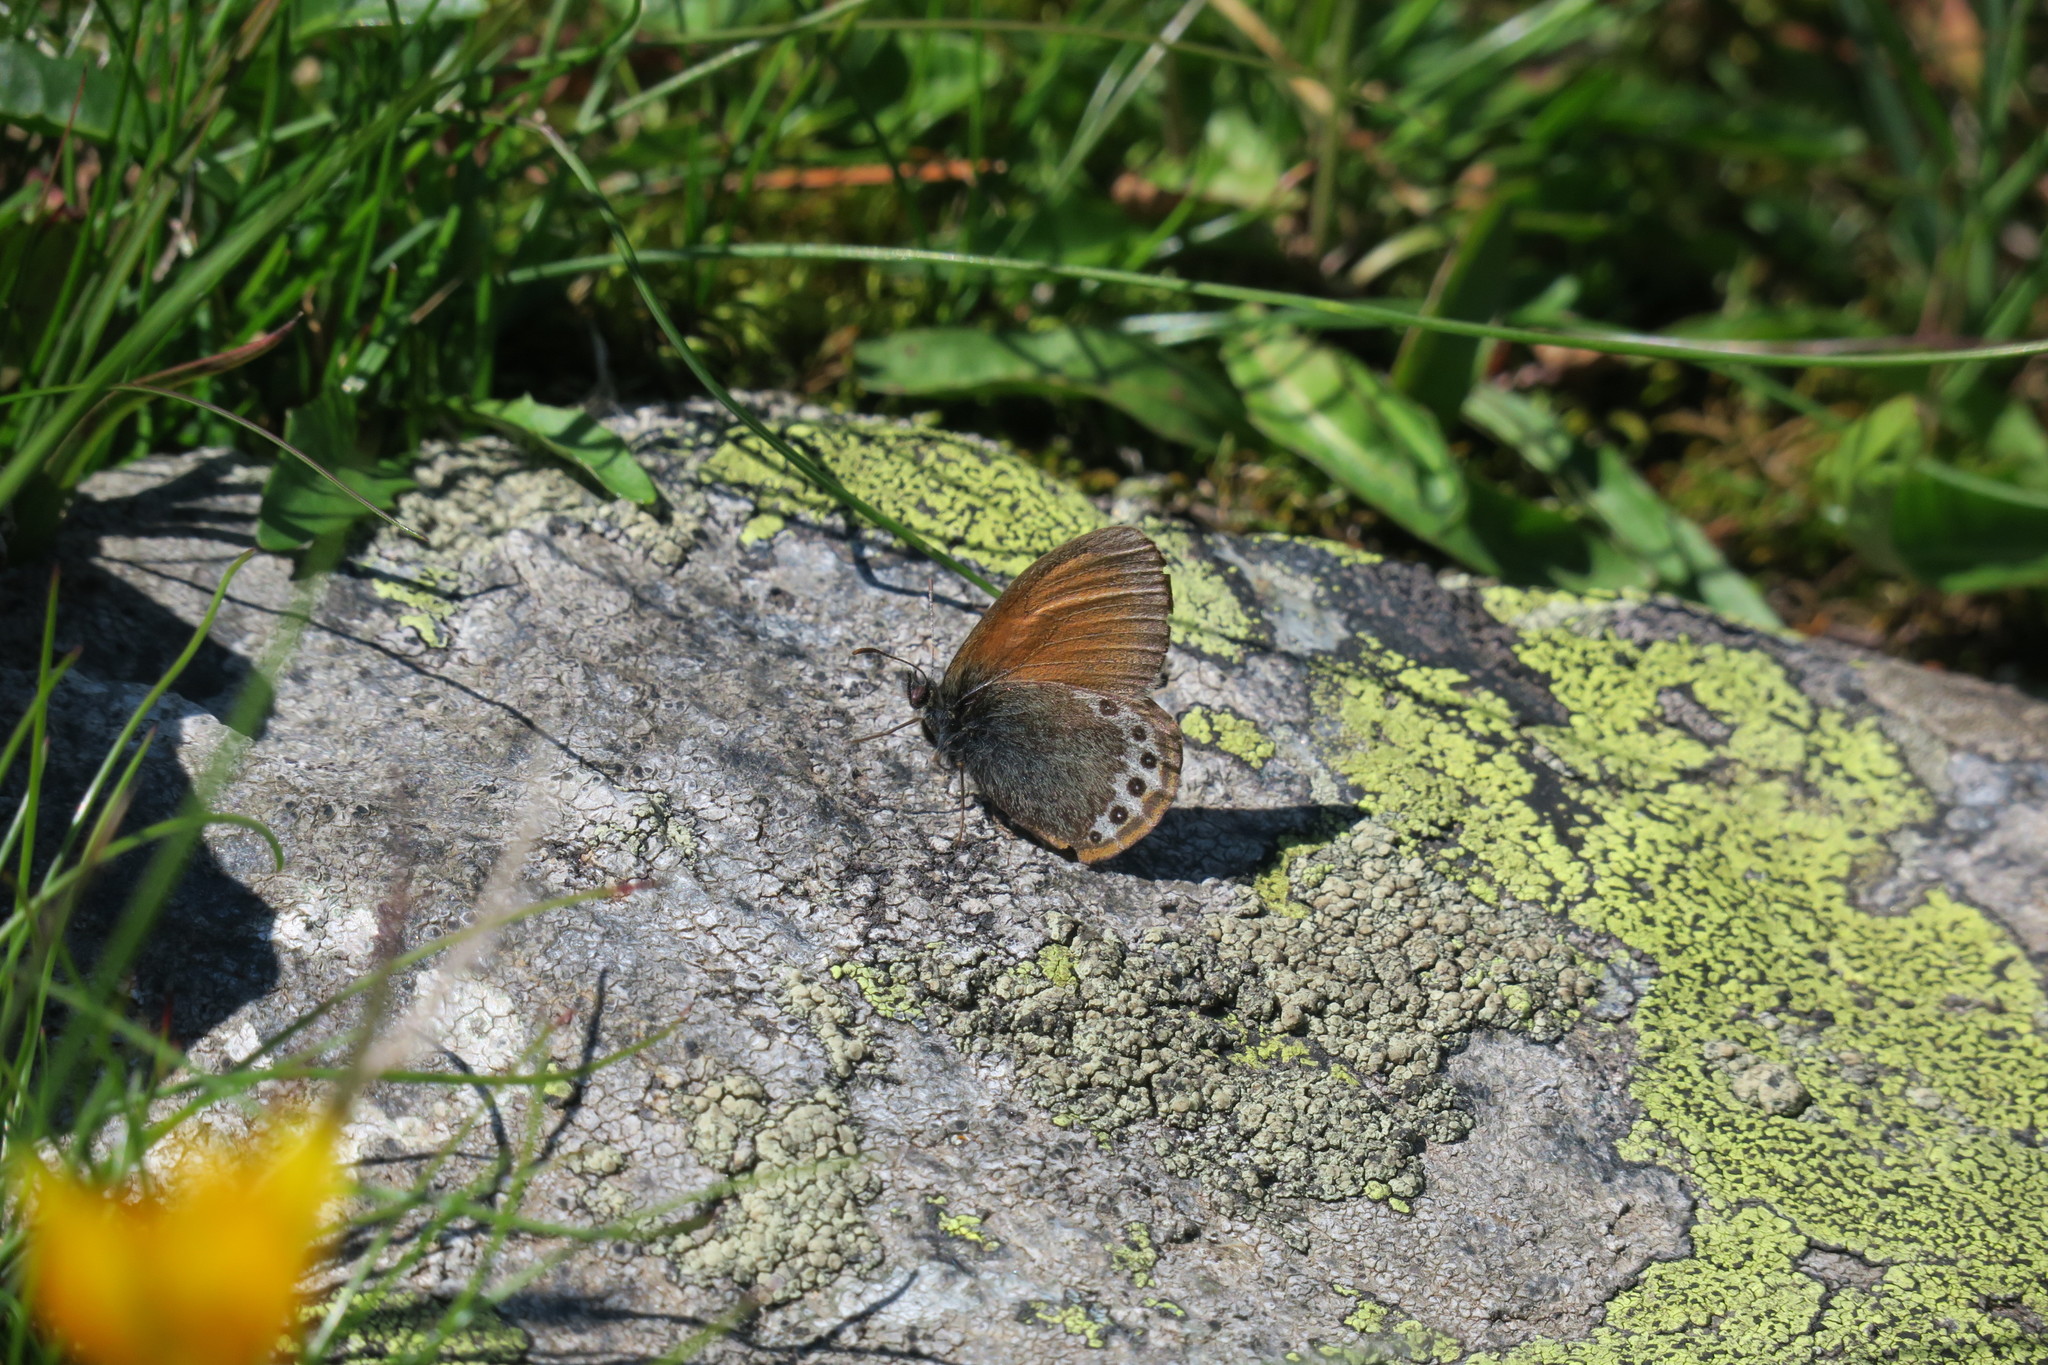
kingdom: Animalia
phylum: Arthropoda
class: Insecta
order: Lepidoptera
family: Nymphalidae
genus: Coenonympha
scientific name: Coenonympha
